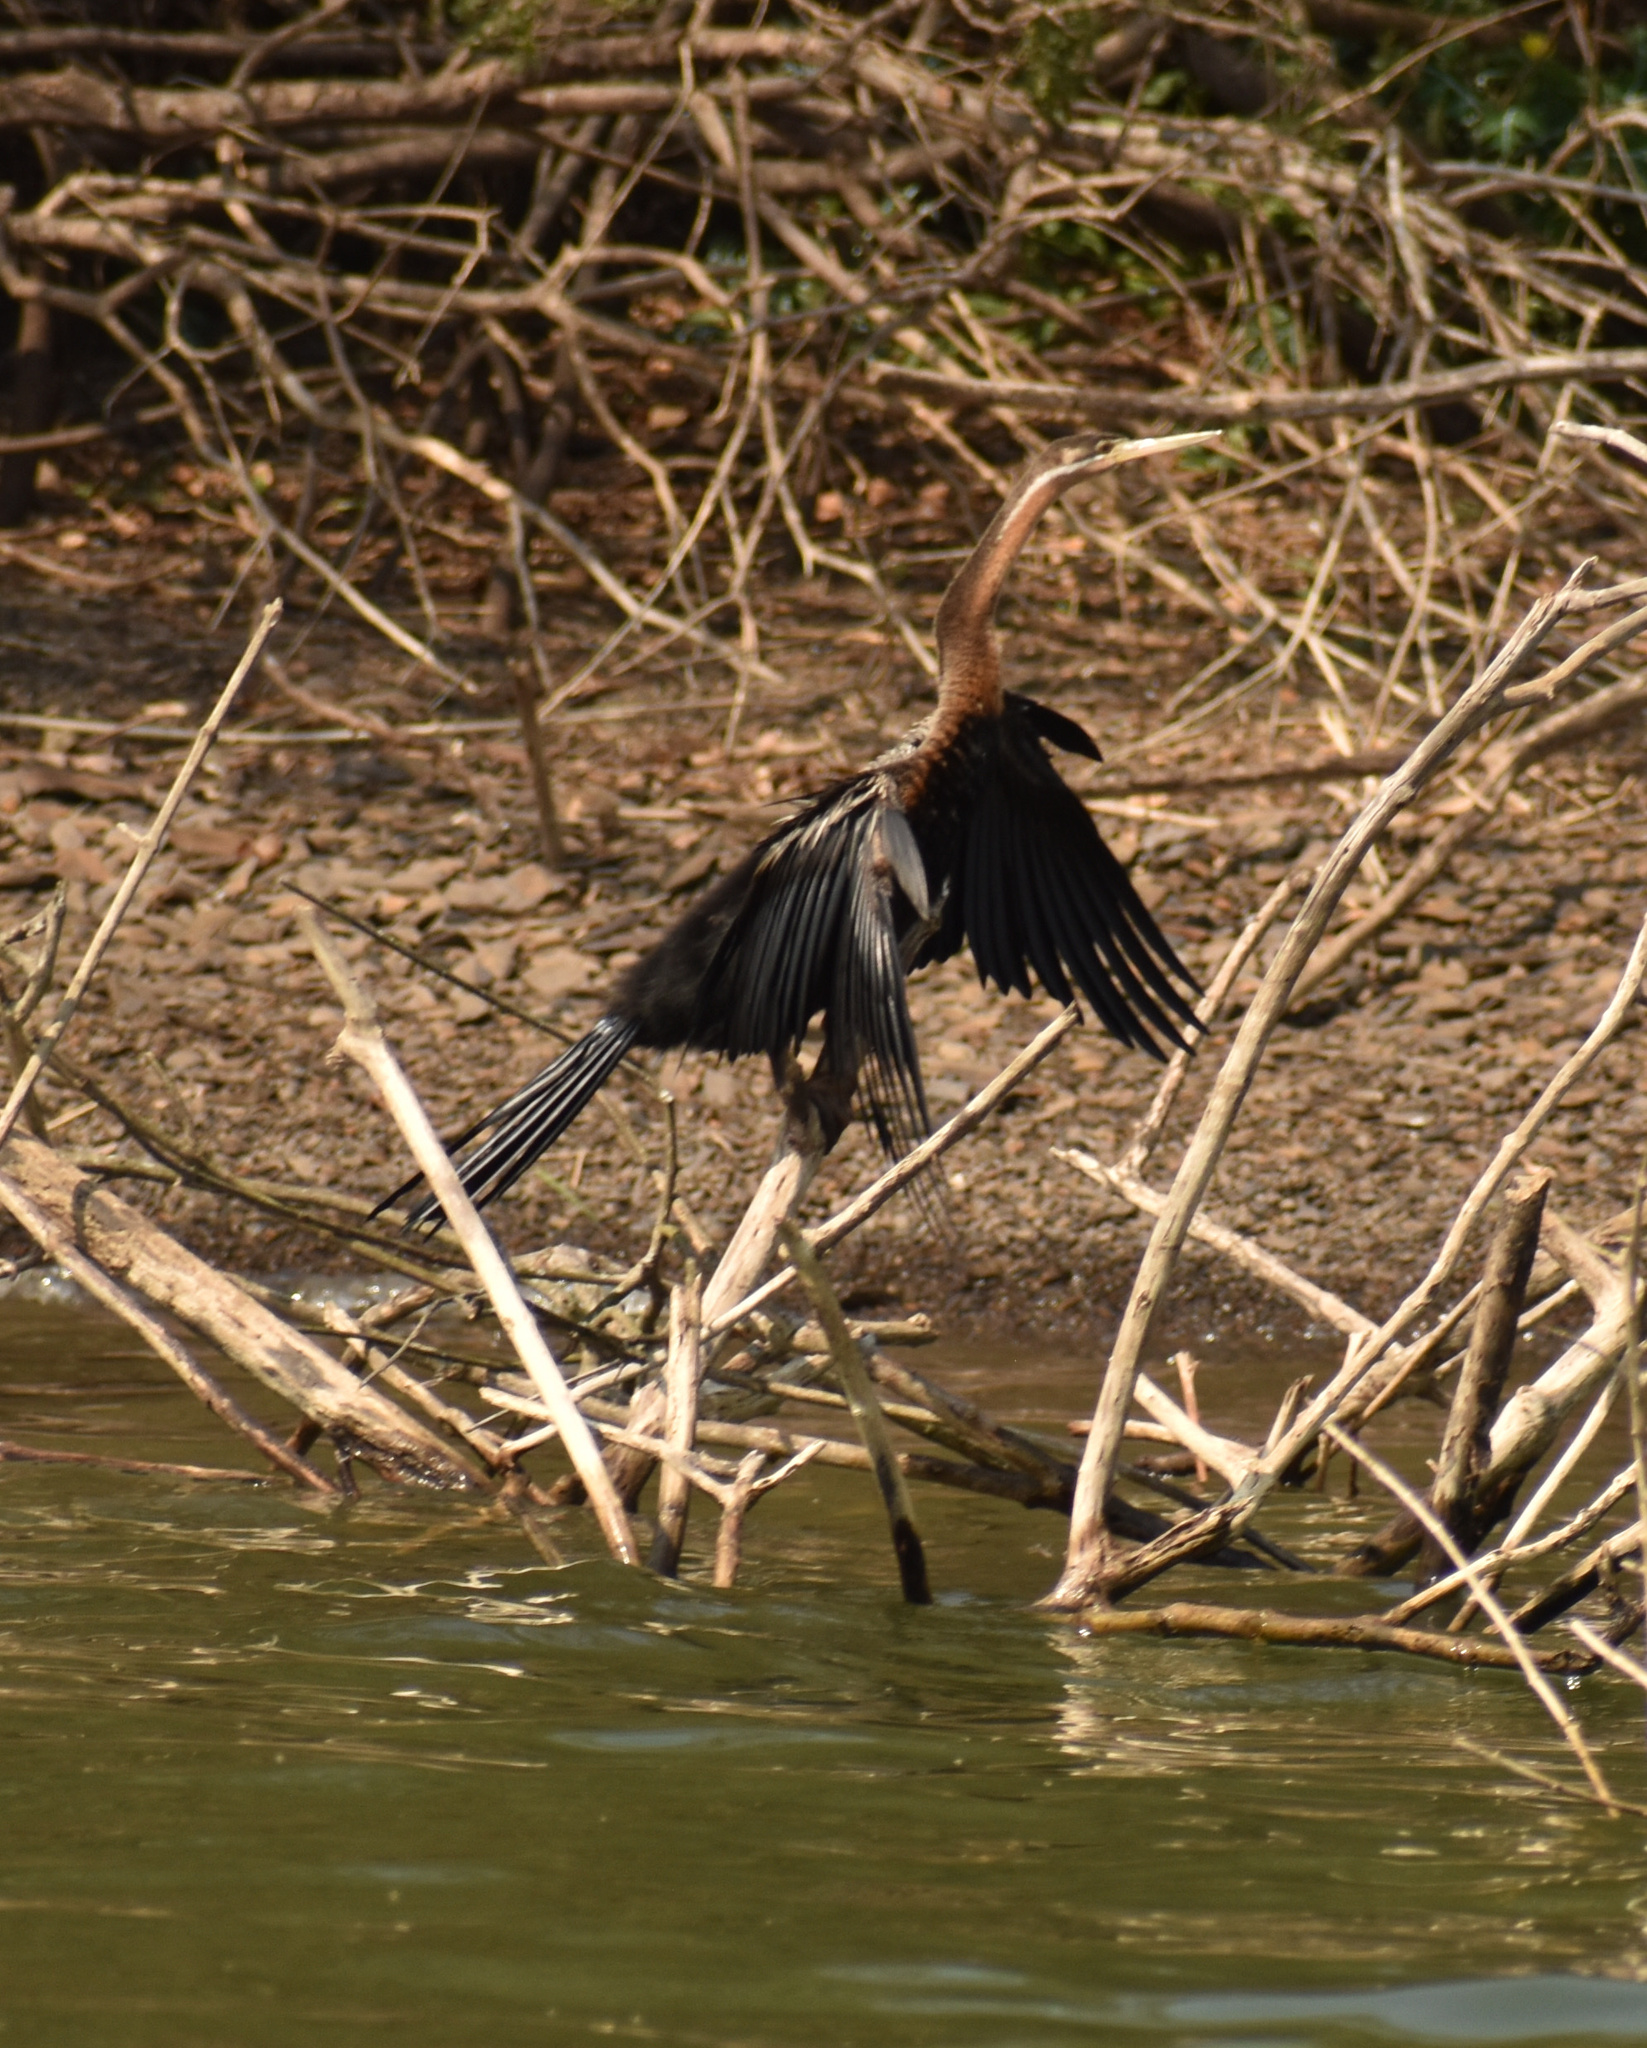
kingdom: Animalia
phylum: Chordata
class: Aves
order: Suliformes
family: Anhingidae
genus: Anhinga
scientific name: Anhinga rufa
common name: African darter
